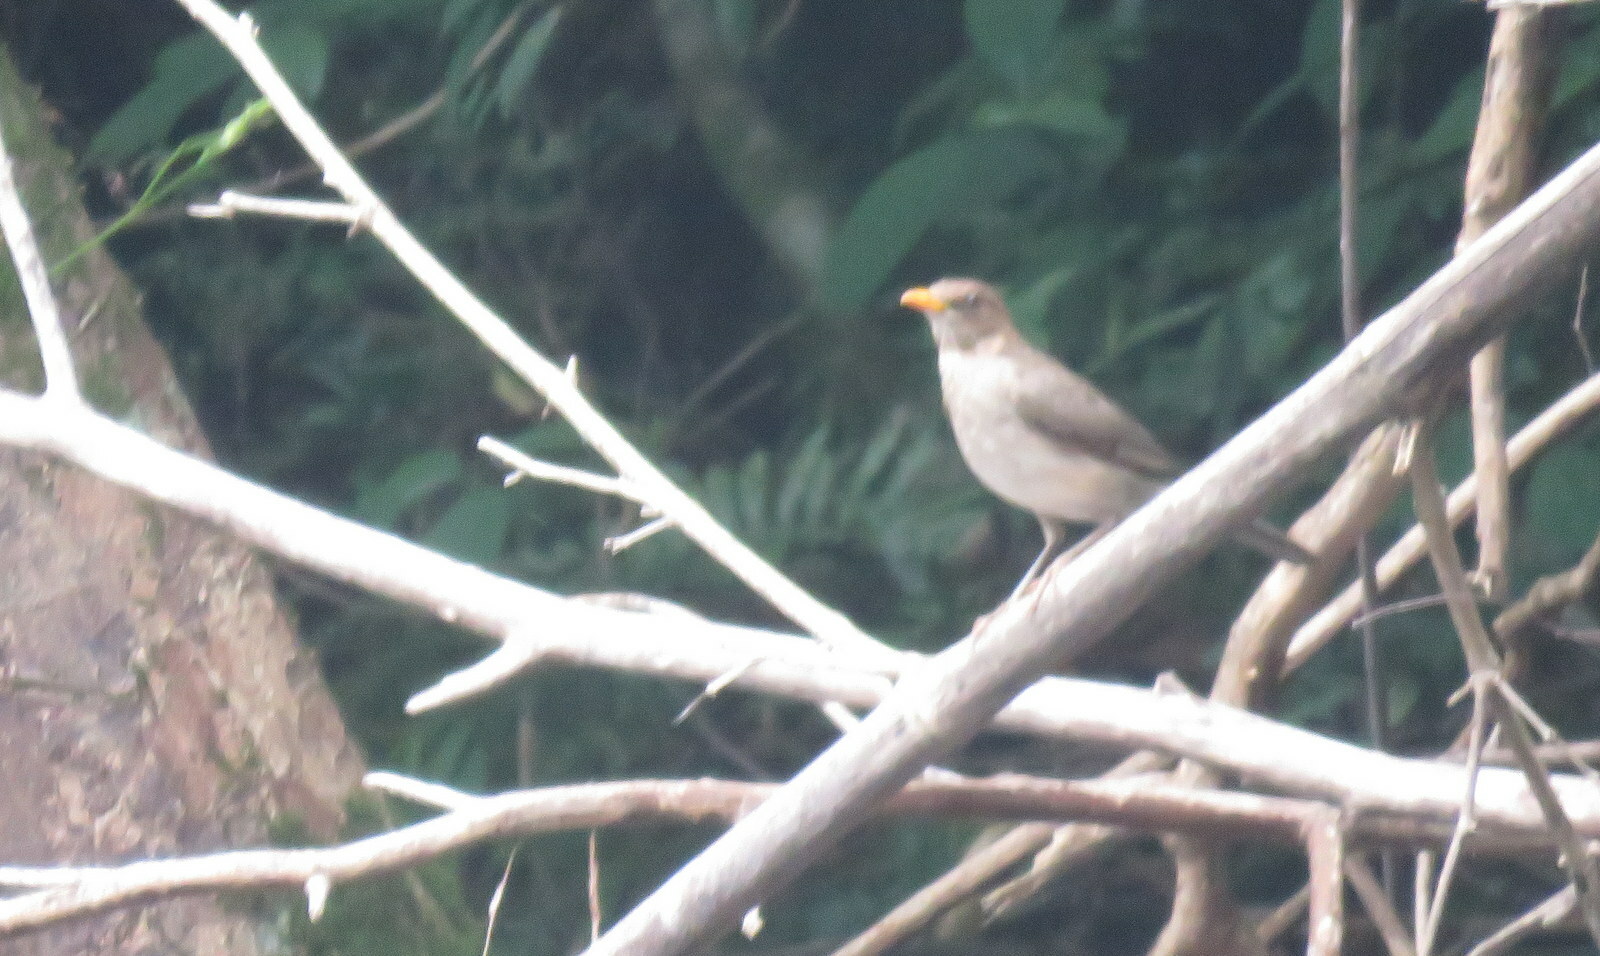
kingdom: Animalia
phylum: Chordata
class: Aves
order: Passeriformes
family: Turdidae
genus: Turdus
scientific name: Turdus amaurochalinus
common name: Creamy-bellied thrush
